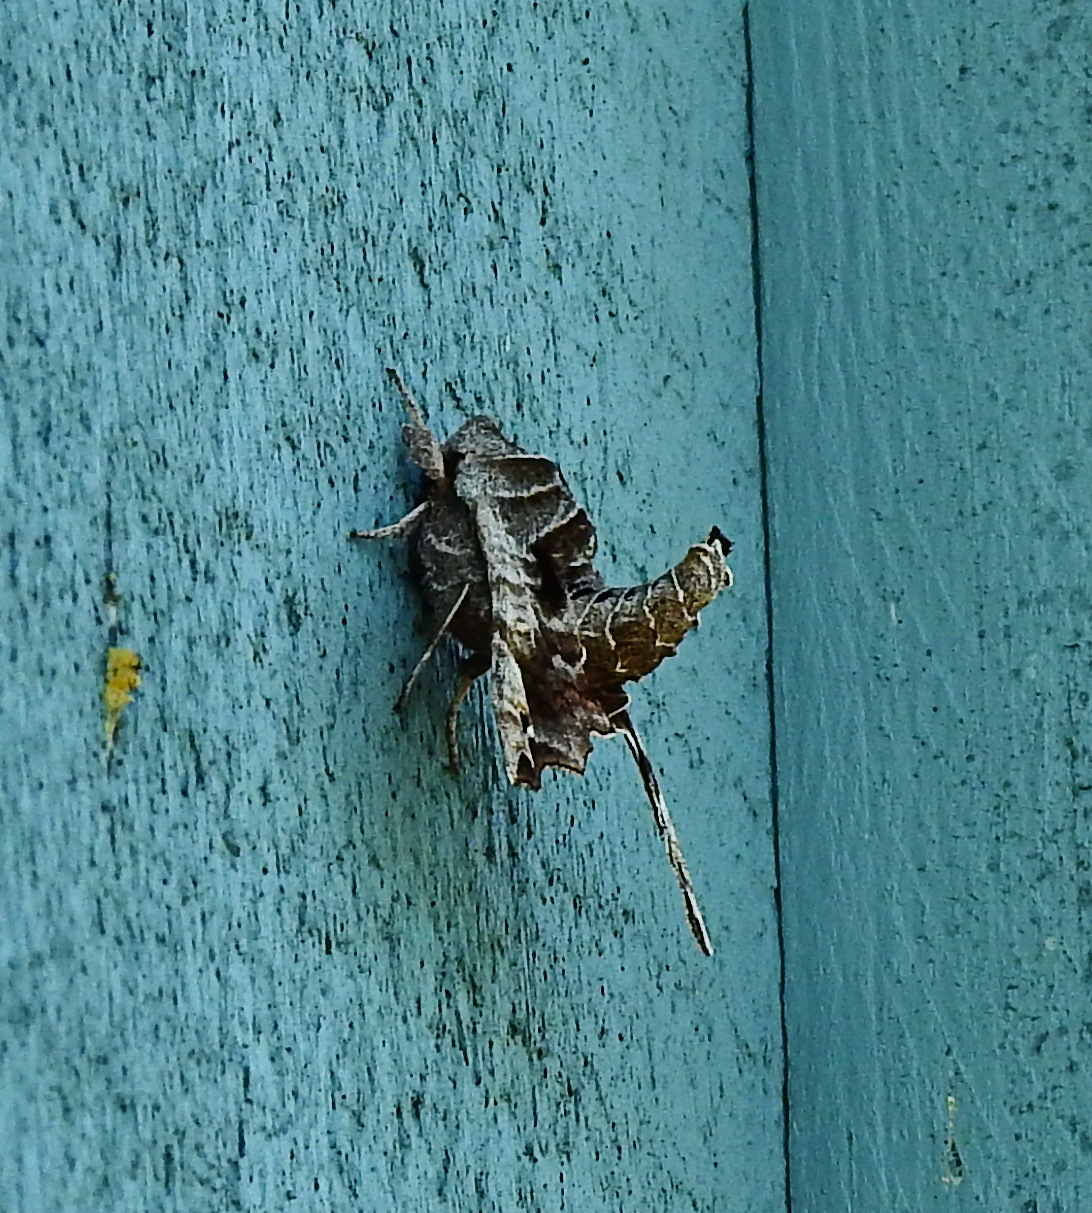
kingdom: Animalia
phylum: Arthropoda
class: Insecta
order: Lepidoptera
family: Sphingidae
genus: Deidamia
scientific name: Deidamia inscriptum
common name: Lettered sphinx
